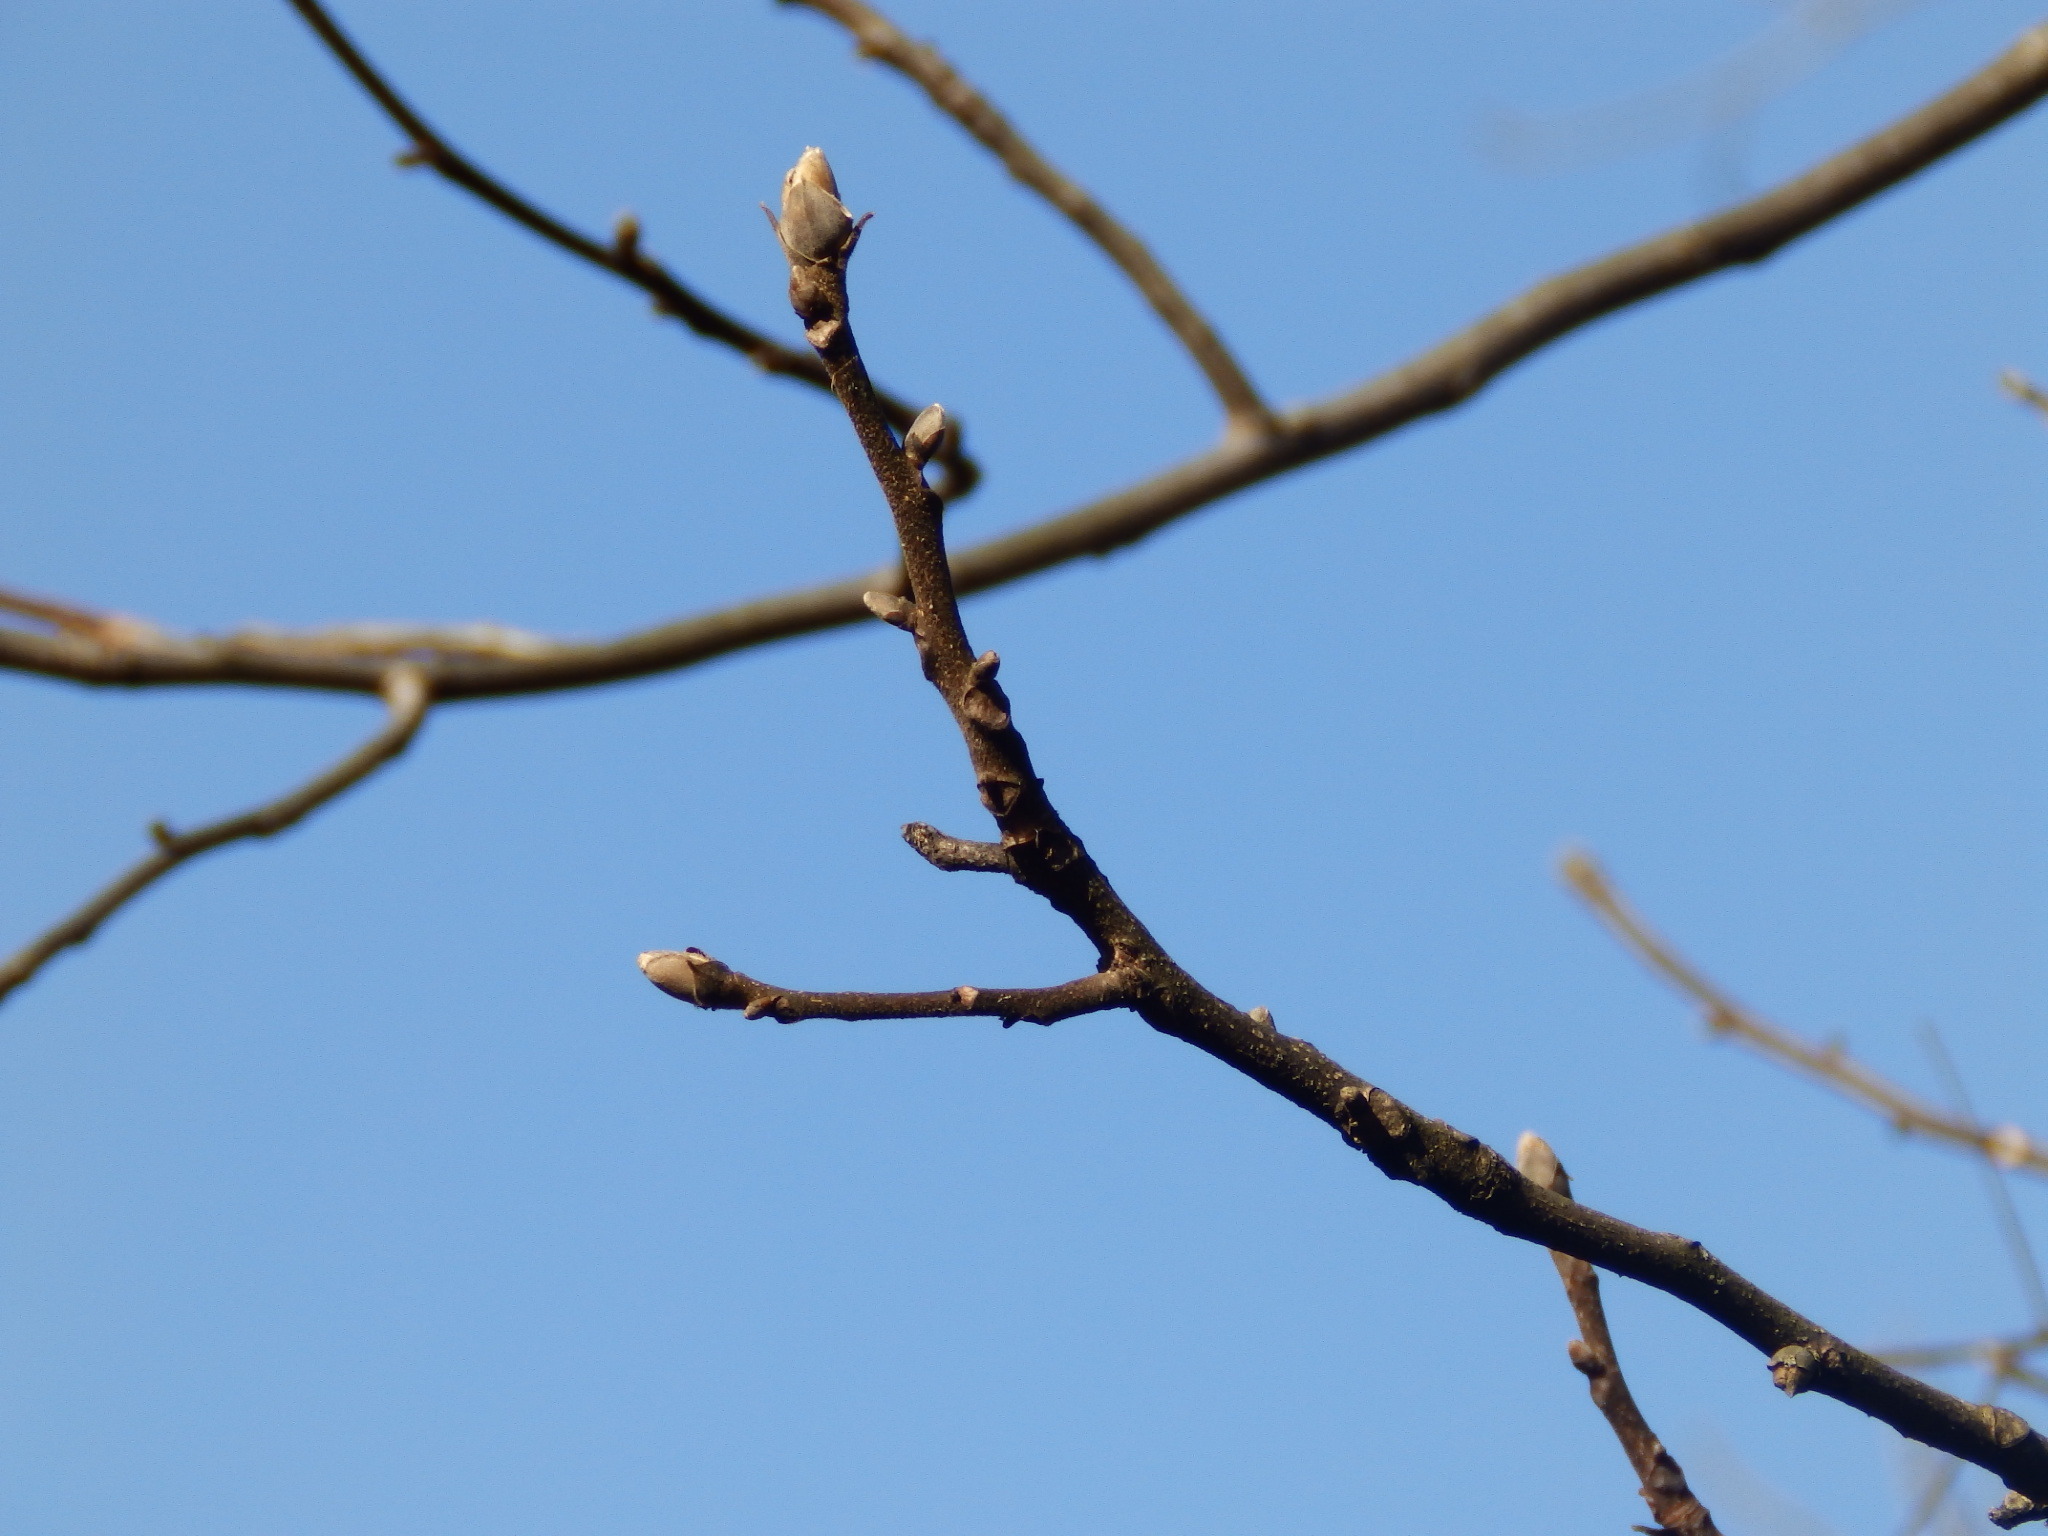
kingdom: Plantae
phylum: Tracheophyta
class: Magnoliopsida
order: Fagales
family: Juglandaceae
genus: Carya
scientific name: Carya ovata
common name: Shagbark hickory
